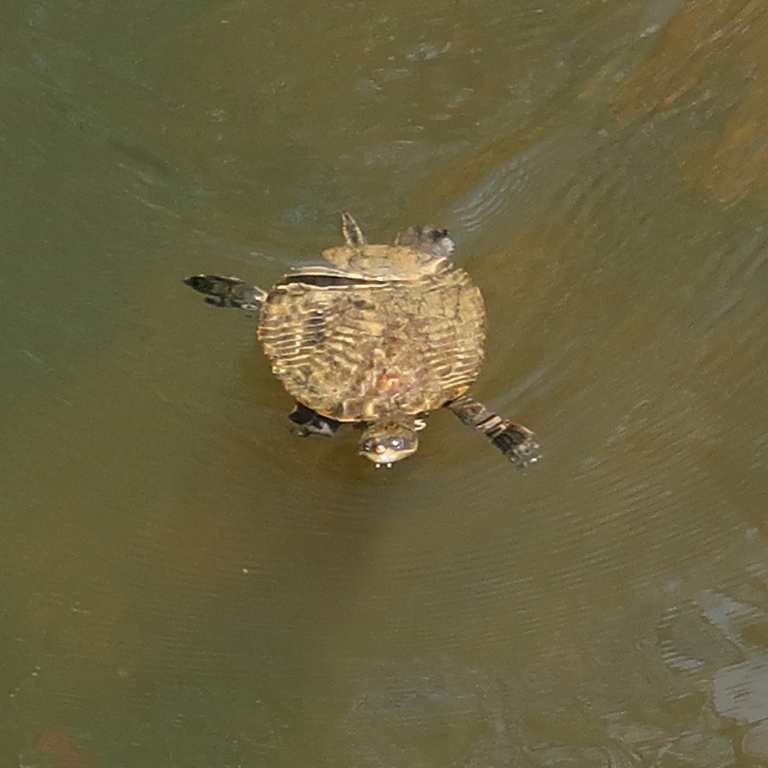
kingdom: Animalia
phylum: Chordata
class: Testudines
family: Chelidae
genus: Myuchelys
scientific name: Myuchelys latisternum
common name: Serrated snapping turtle
